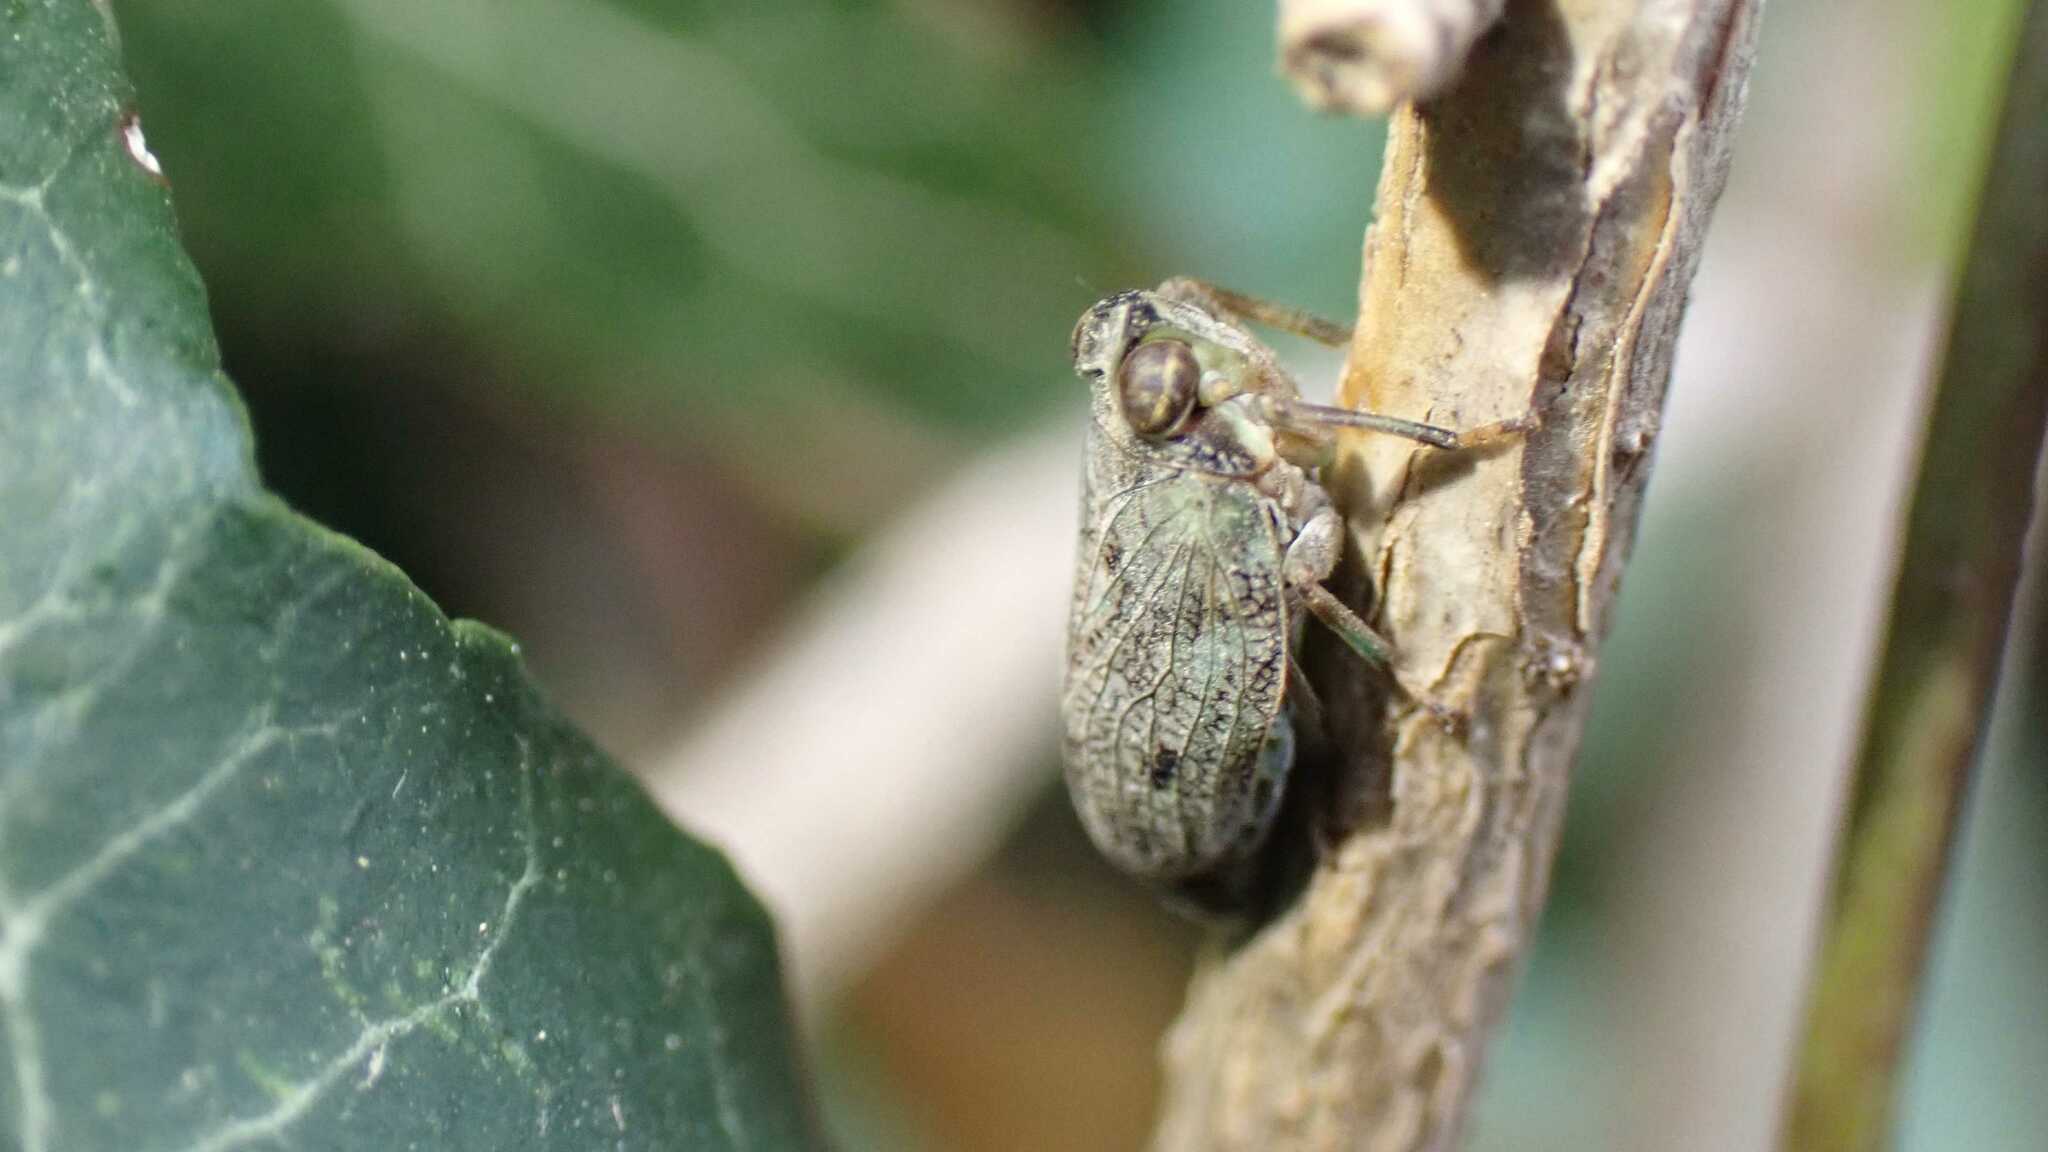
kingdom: Animalia
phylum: Arthropoda
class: Insecta
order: Hemiptera
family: Issidae
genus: Issus
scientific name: Issus coleoptratus
